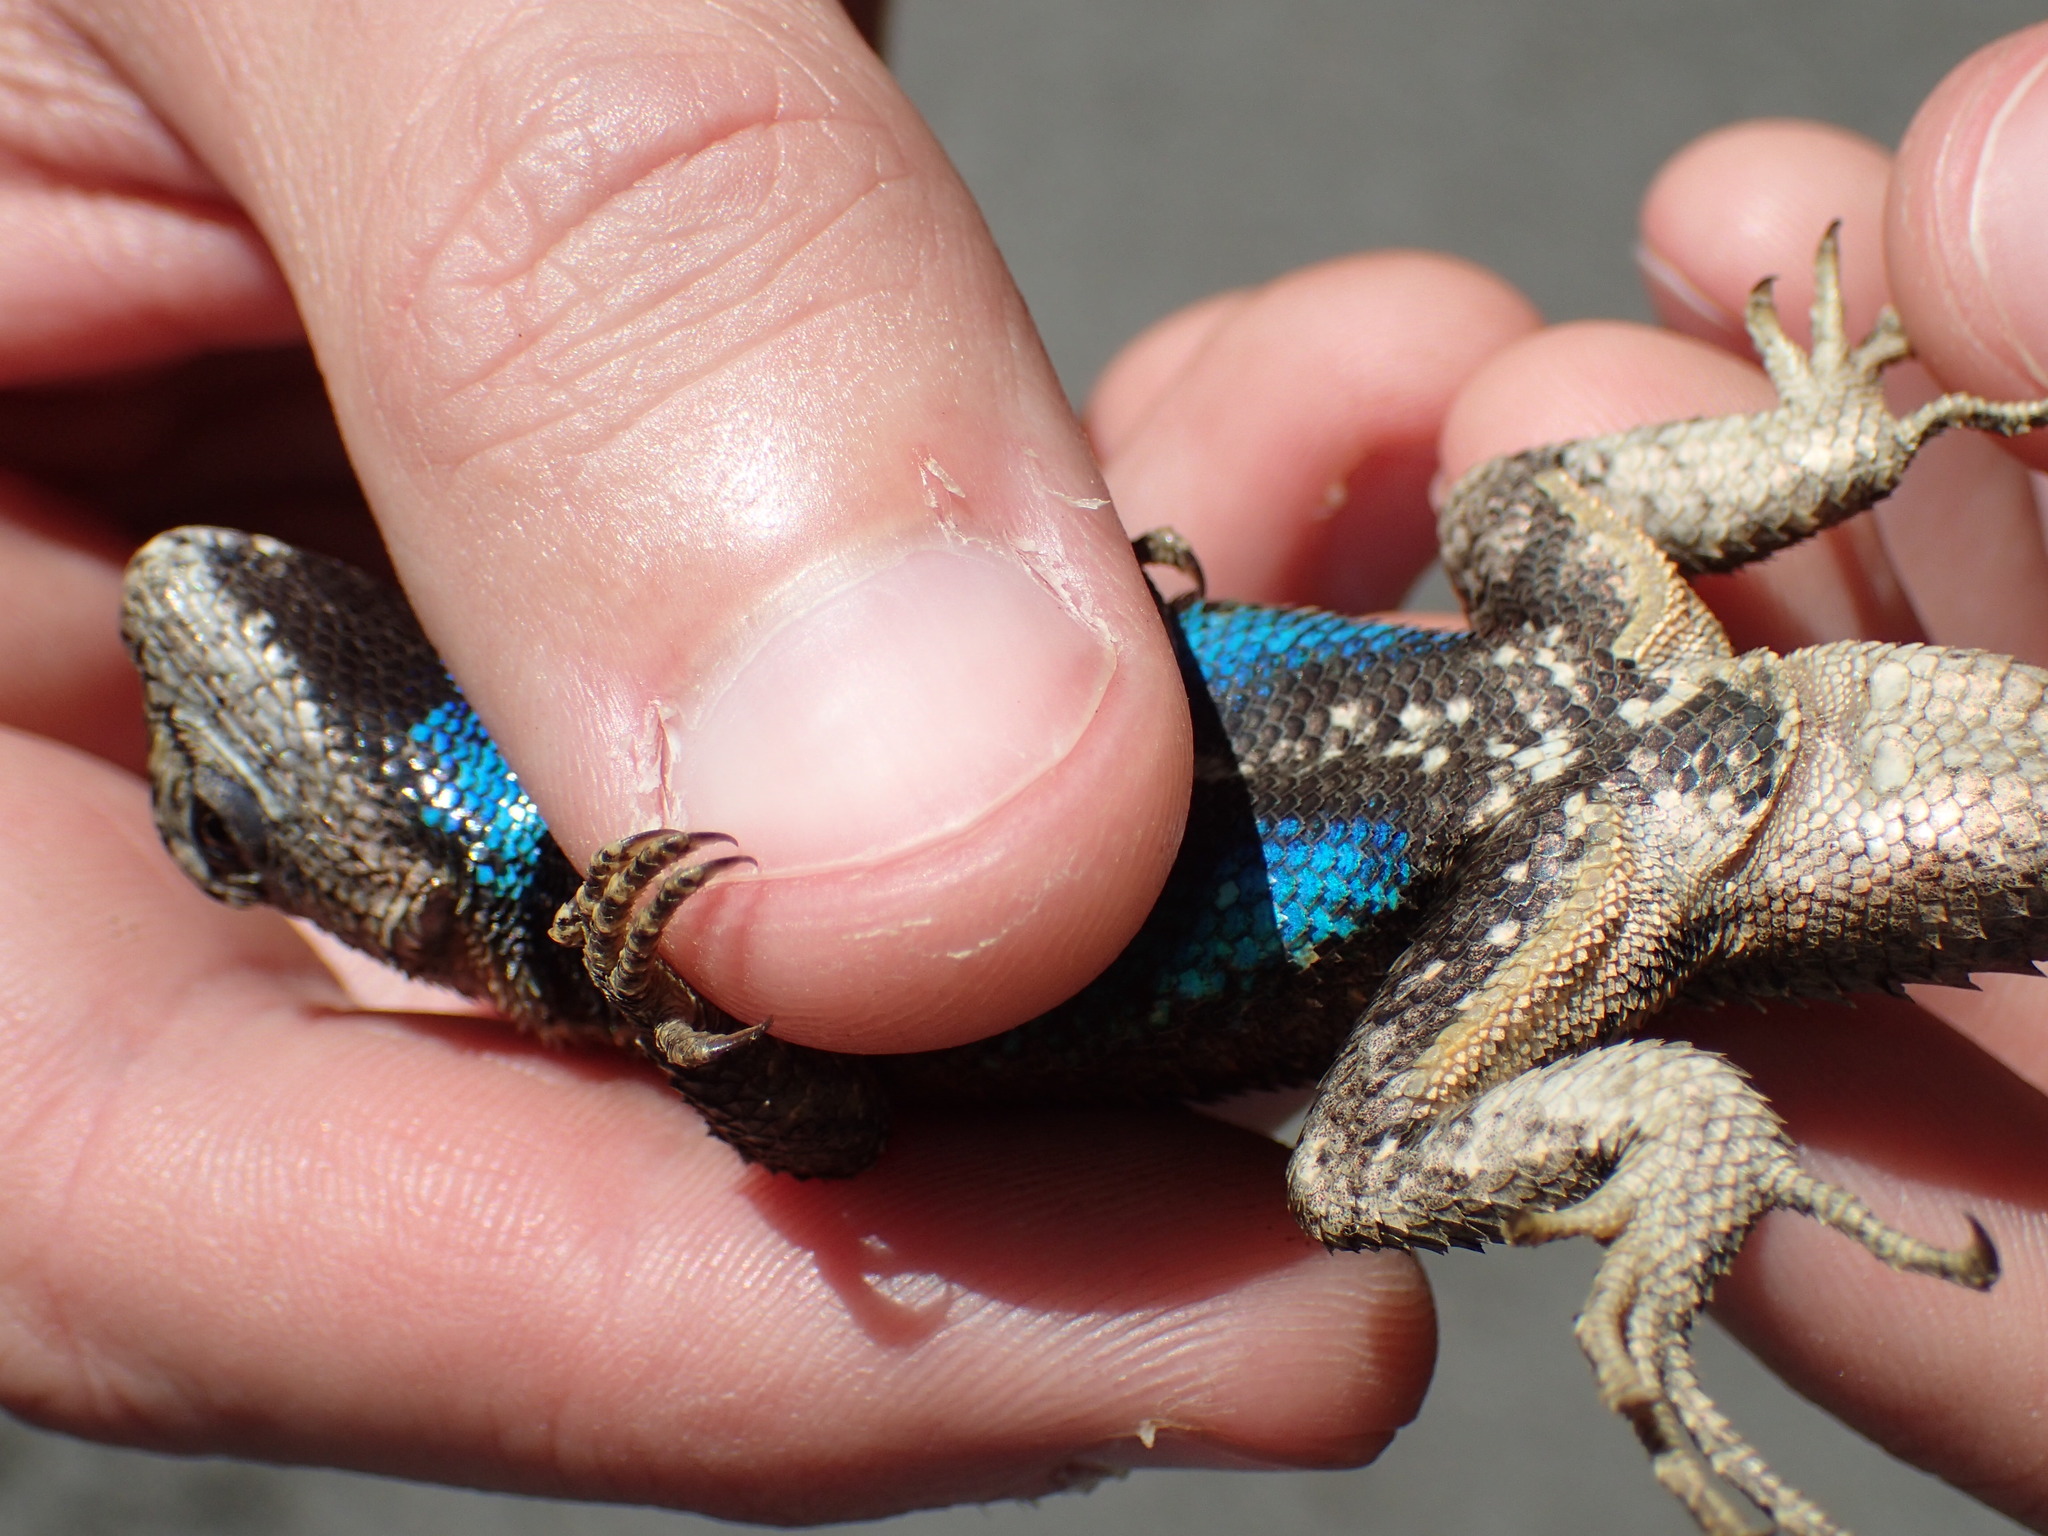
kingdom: Animalia
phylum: Chordata
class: Squamata
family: Phrynosomatidae
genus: Sceloporus
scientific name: Sceloporus undulatus
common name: Eastern fence lizard
